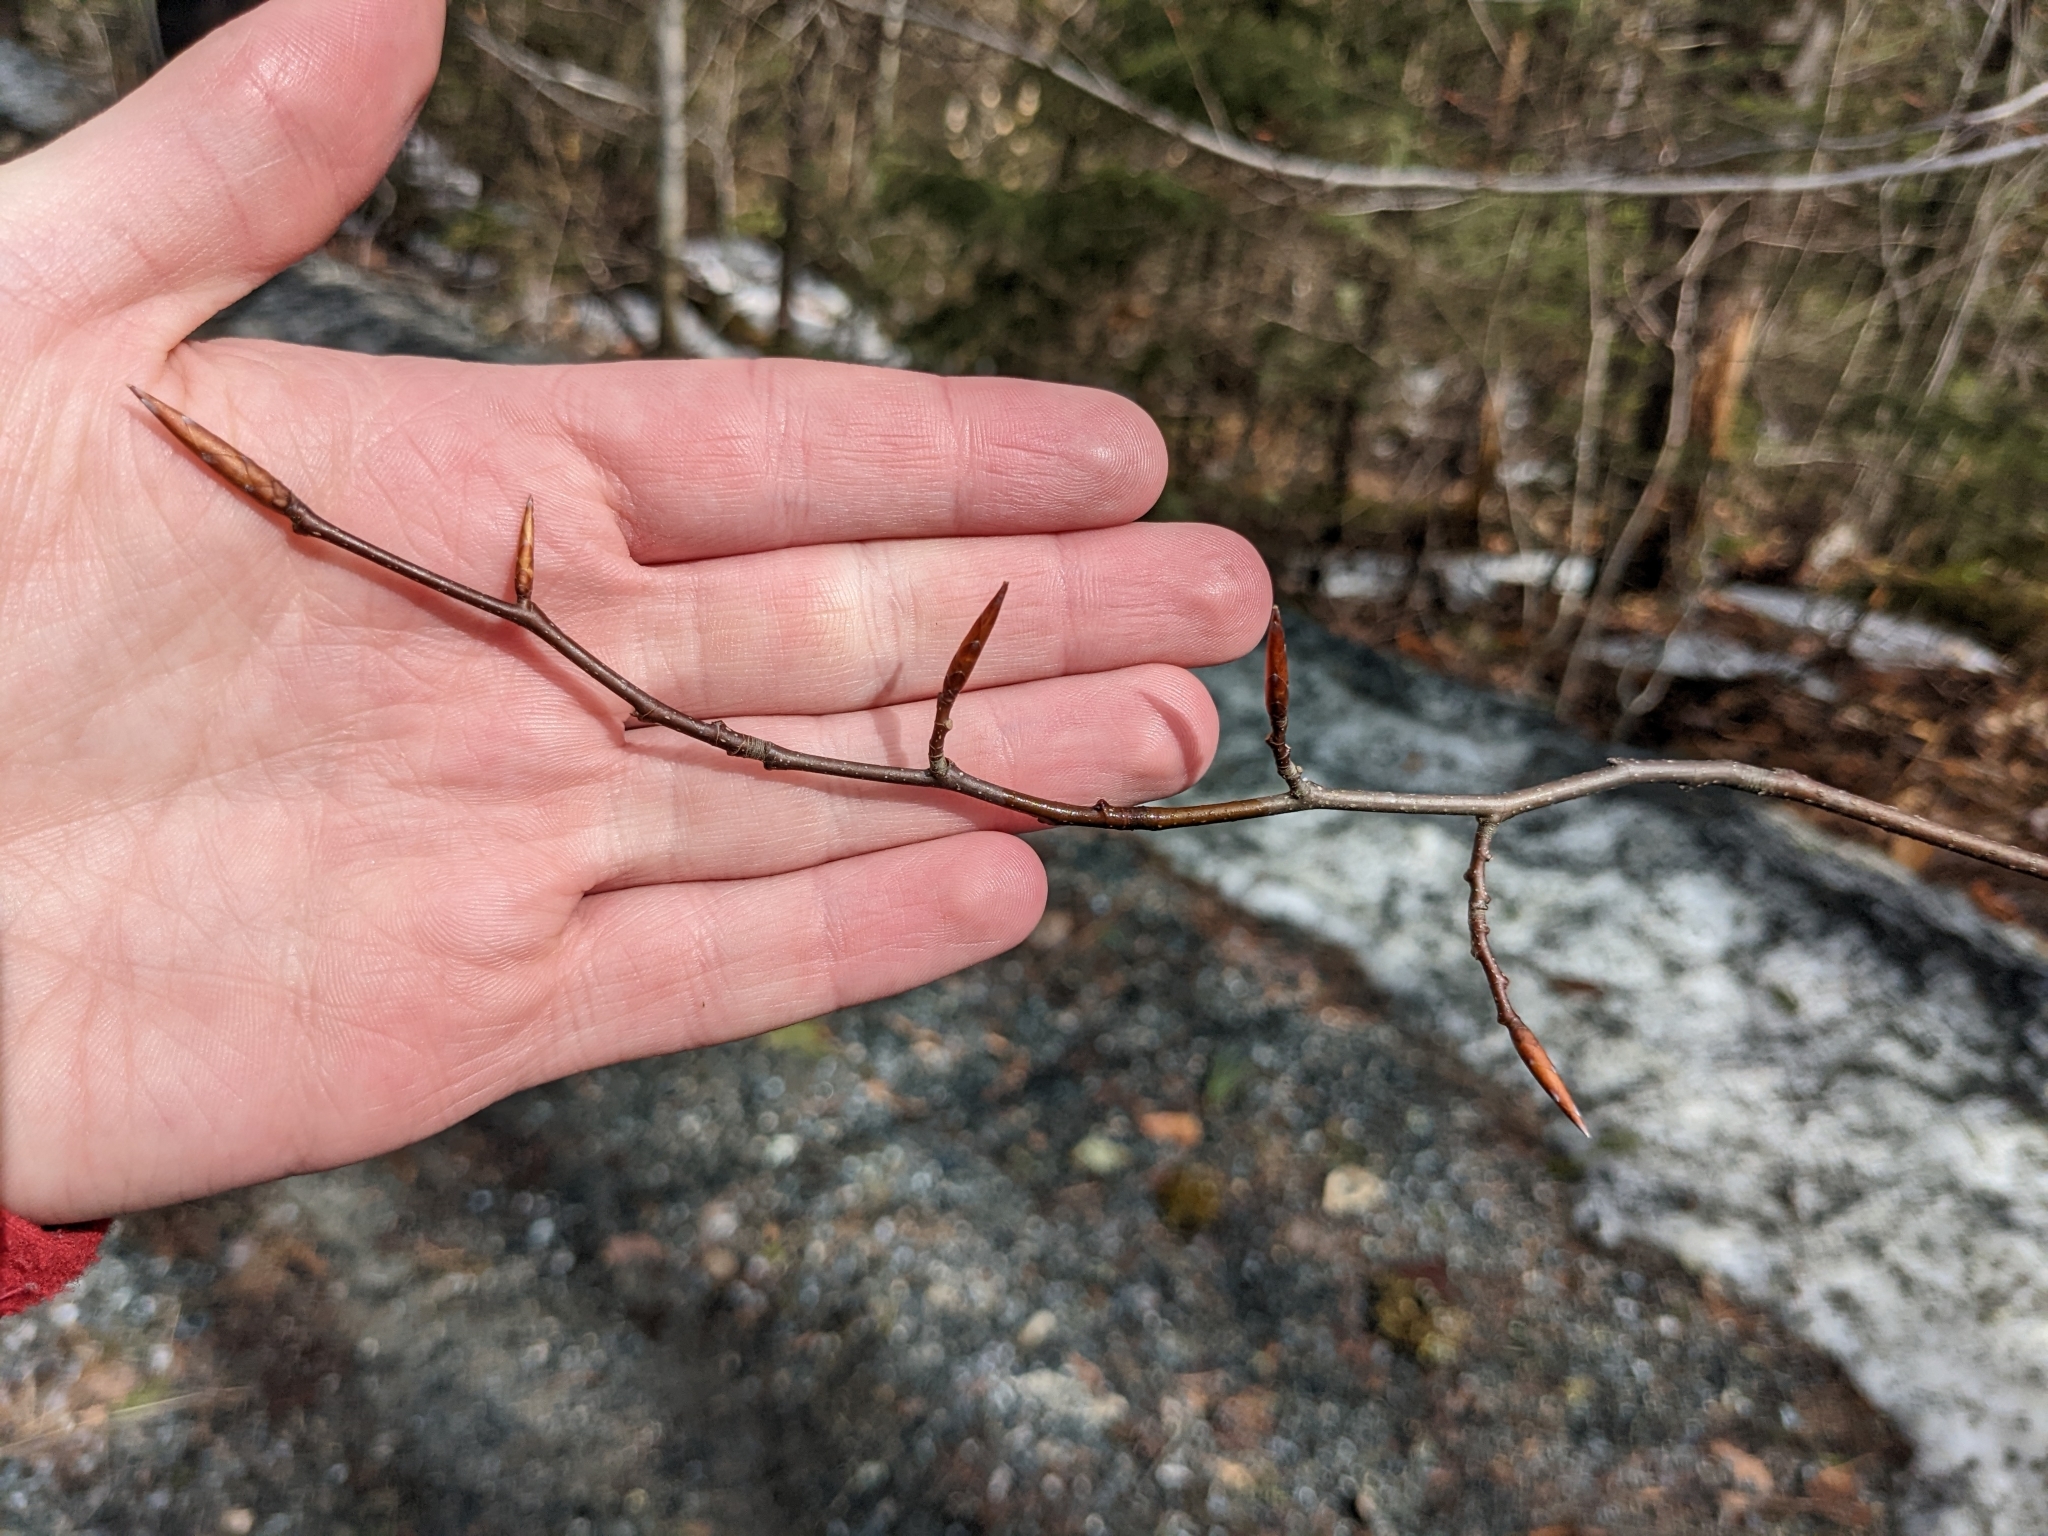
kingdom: Plantae
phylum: Tracheophyta
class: Magnoliopsida
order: Fagales
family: Fagaceae
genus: Fagus
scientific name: Fagus grandifolia
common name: American beech
